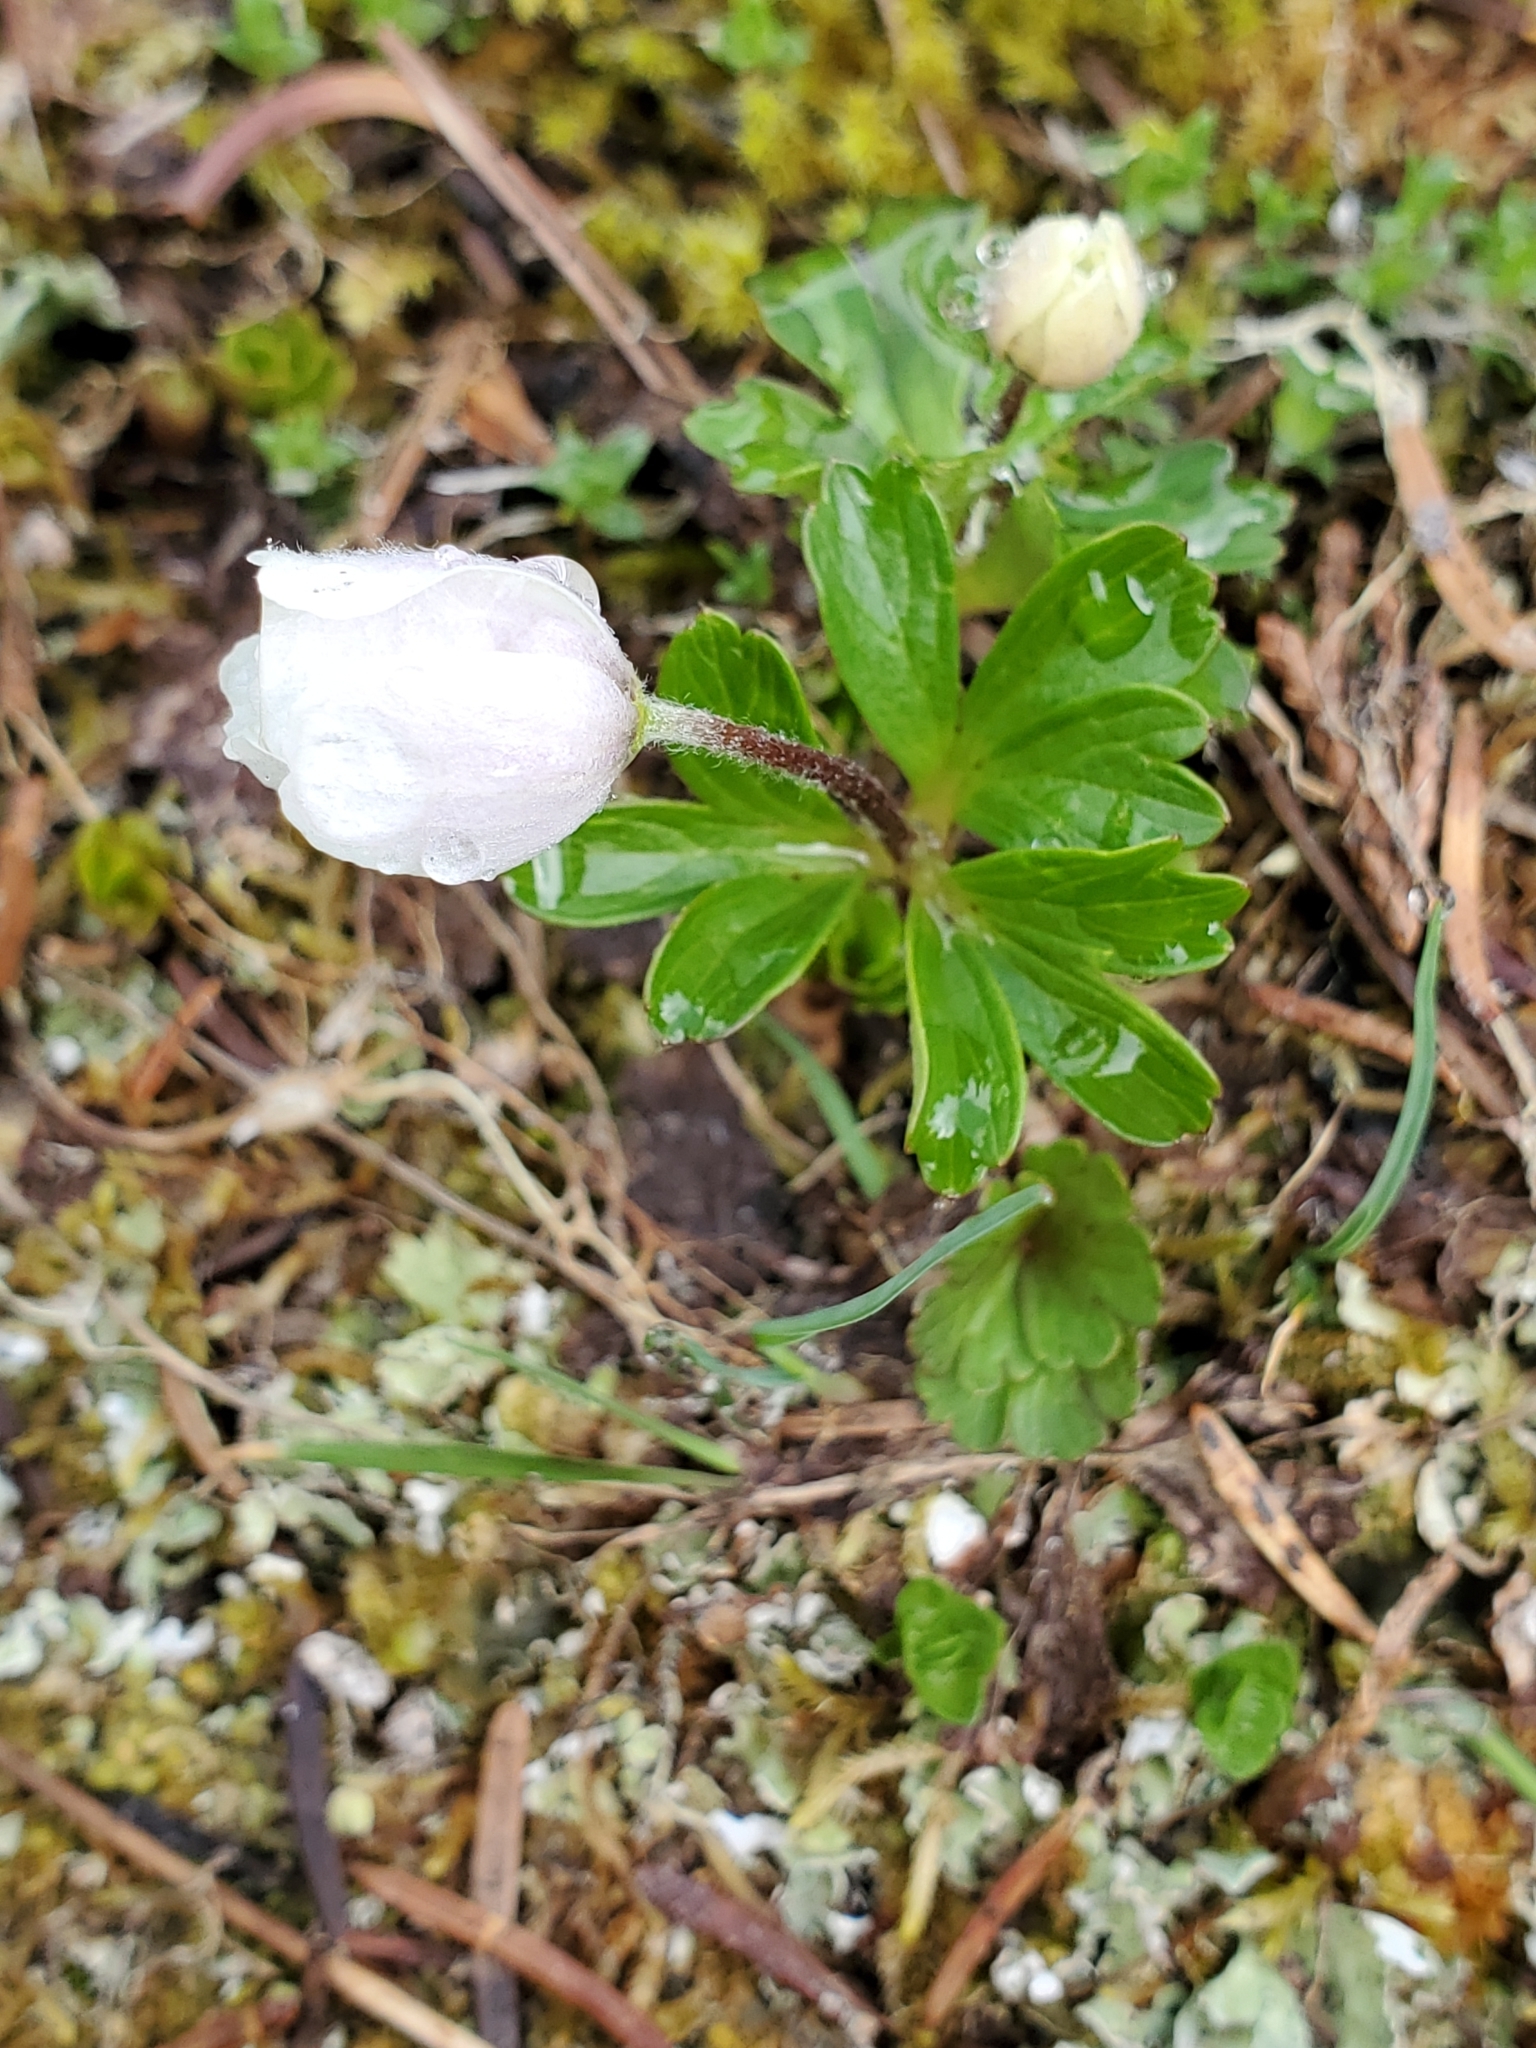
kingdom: Plantae
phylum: Tracheophyta
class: Magnoliopsida
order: Ranunculales
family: Ranunculaceae
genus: Anemone
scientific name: Anemone parviflora
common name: Northern anemone
